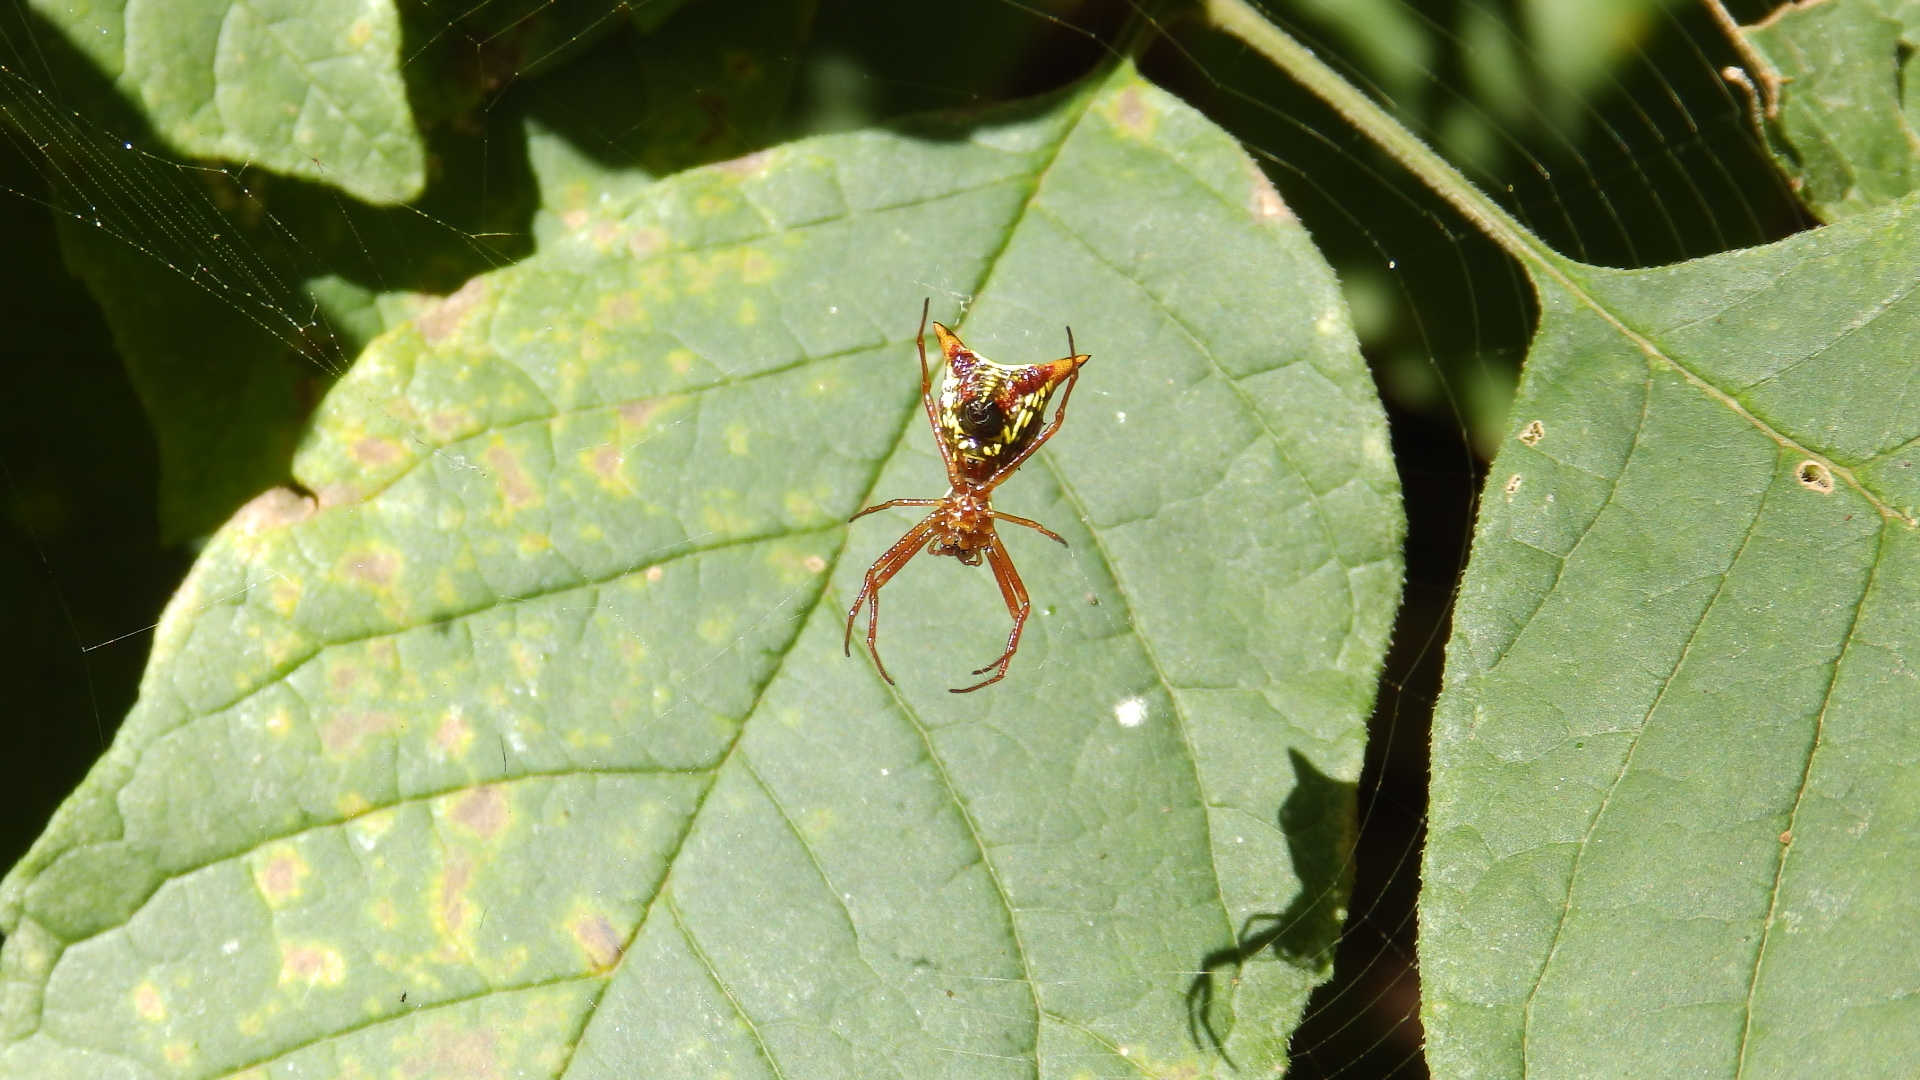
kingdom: Animalia
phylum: Arthropoda
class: Arachnida
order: Araneae
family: Araneidae
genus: Micrathena
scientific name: Micrathena sagittata
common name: Orb weavers
